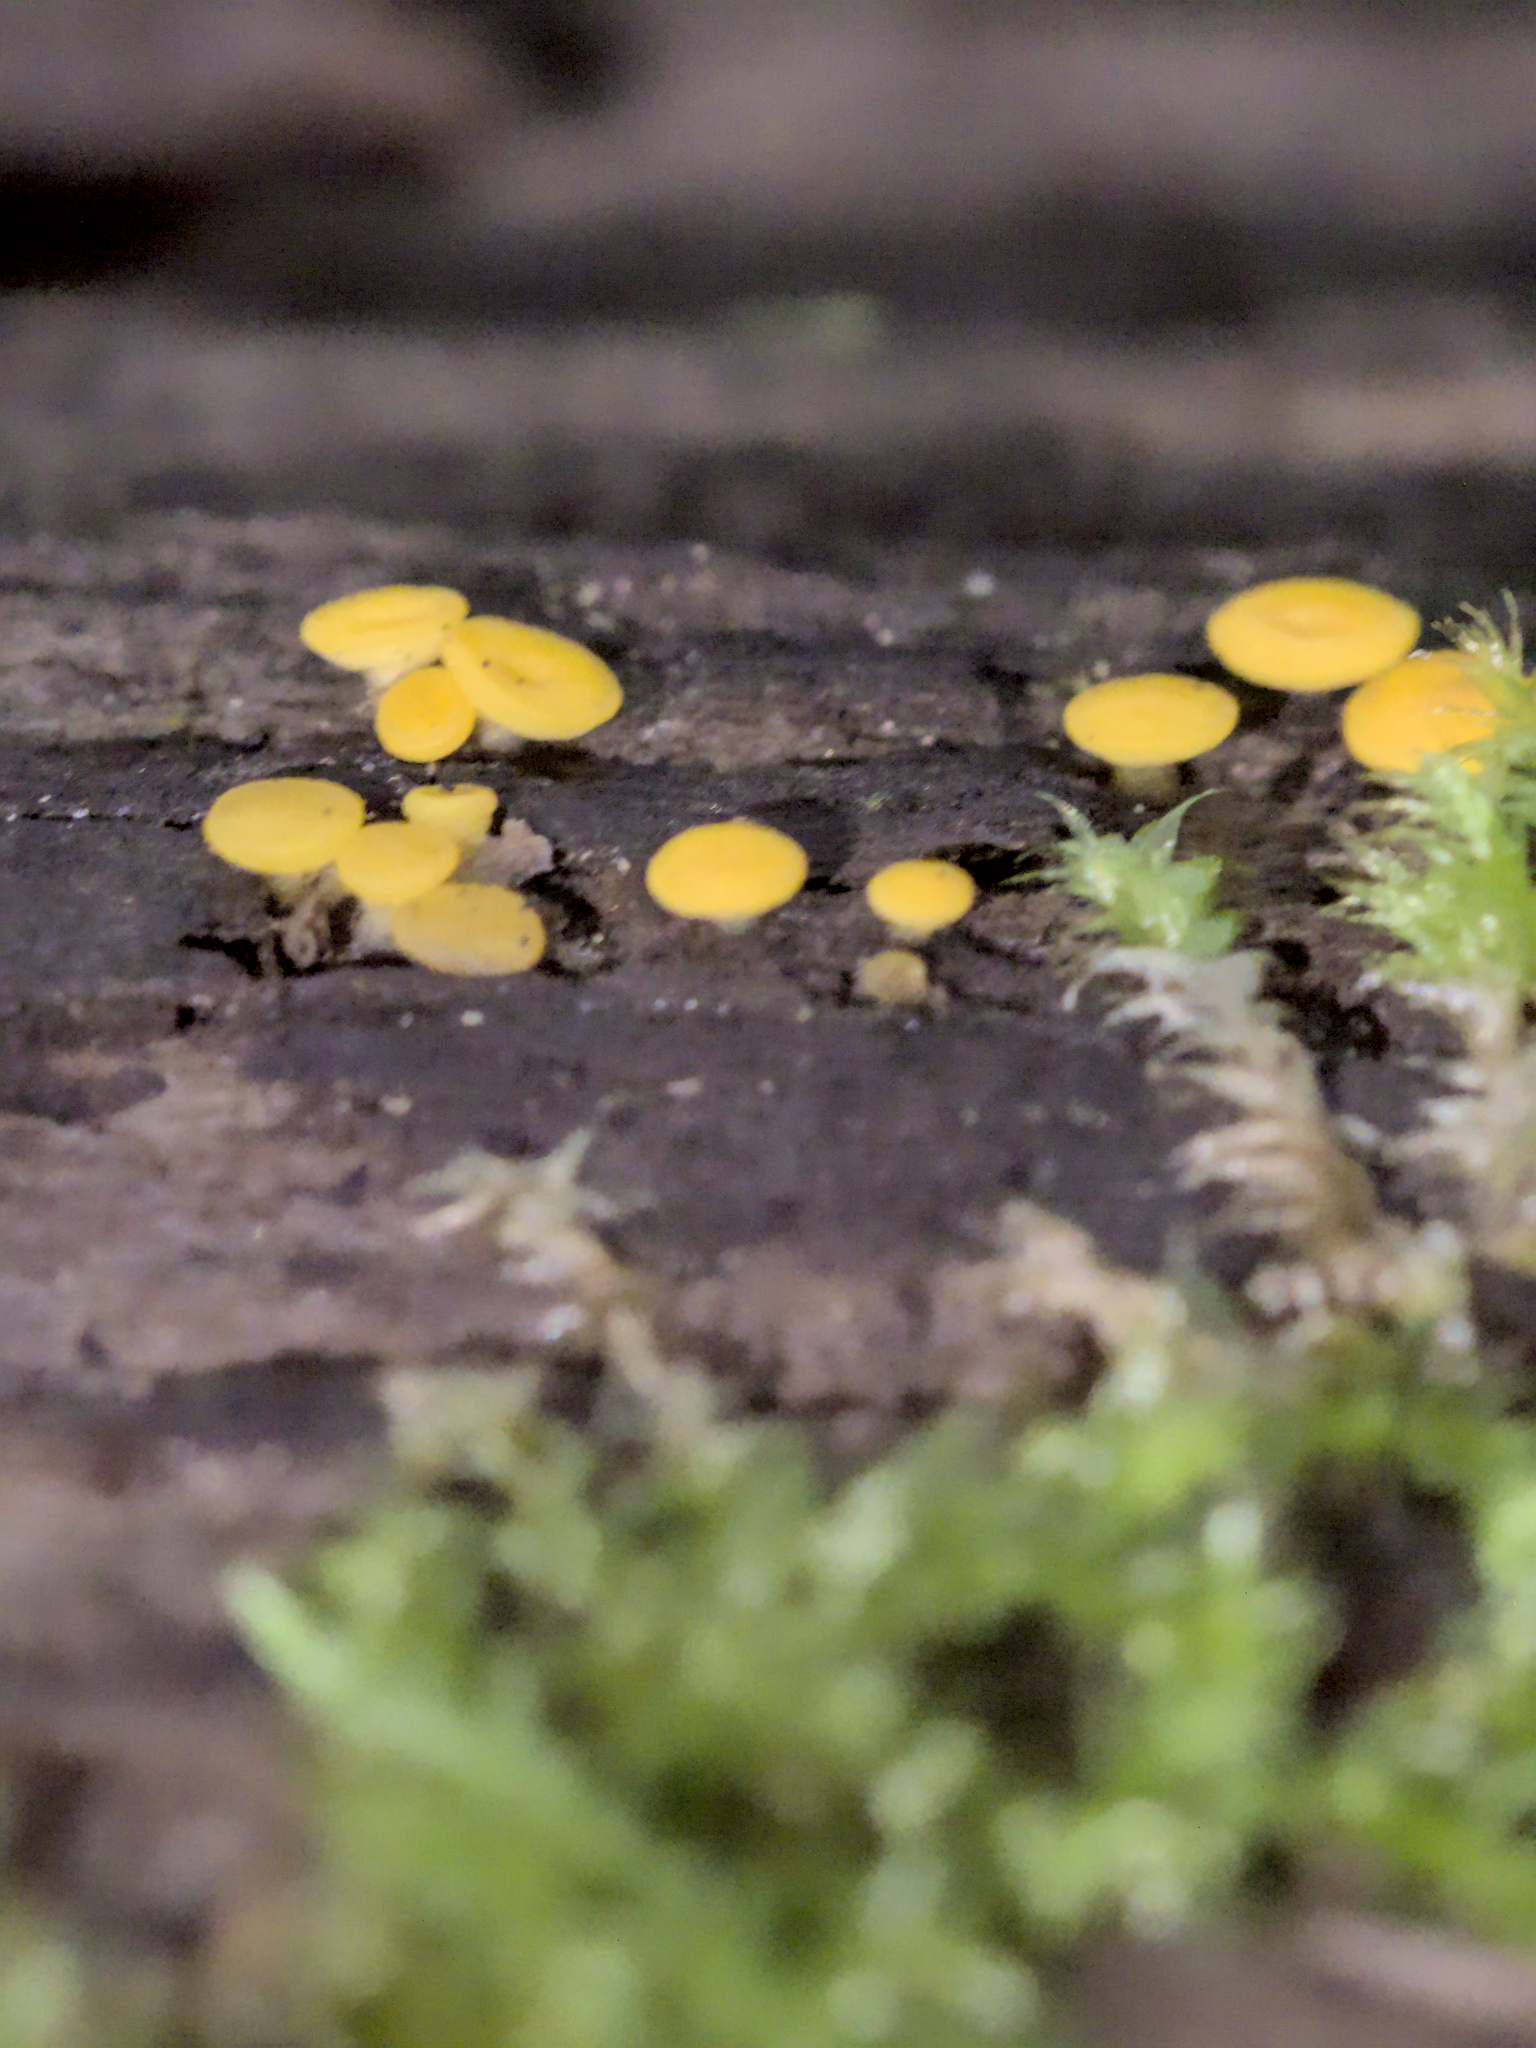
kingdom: Fungi
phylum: Ascomycota
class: Leotiomycetes
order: Helotiales
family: Pezizellaceae
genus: Calycina
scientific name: Calycina citrina
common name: Yellow fairy cups
